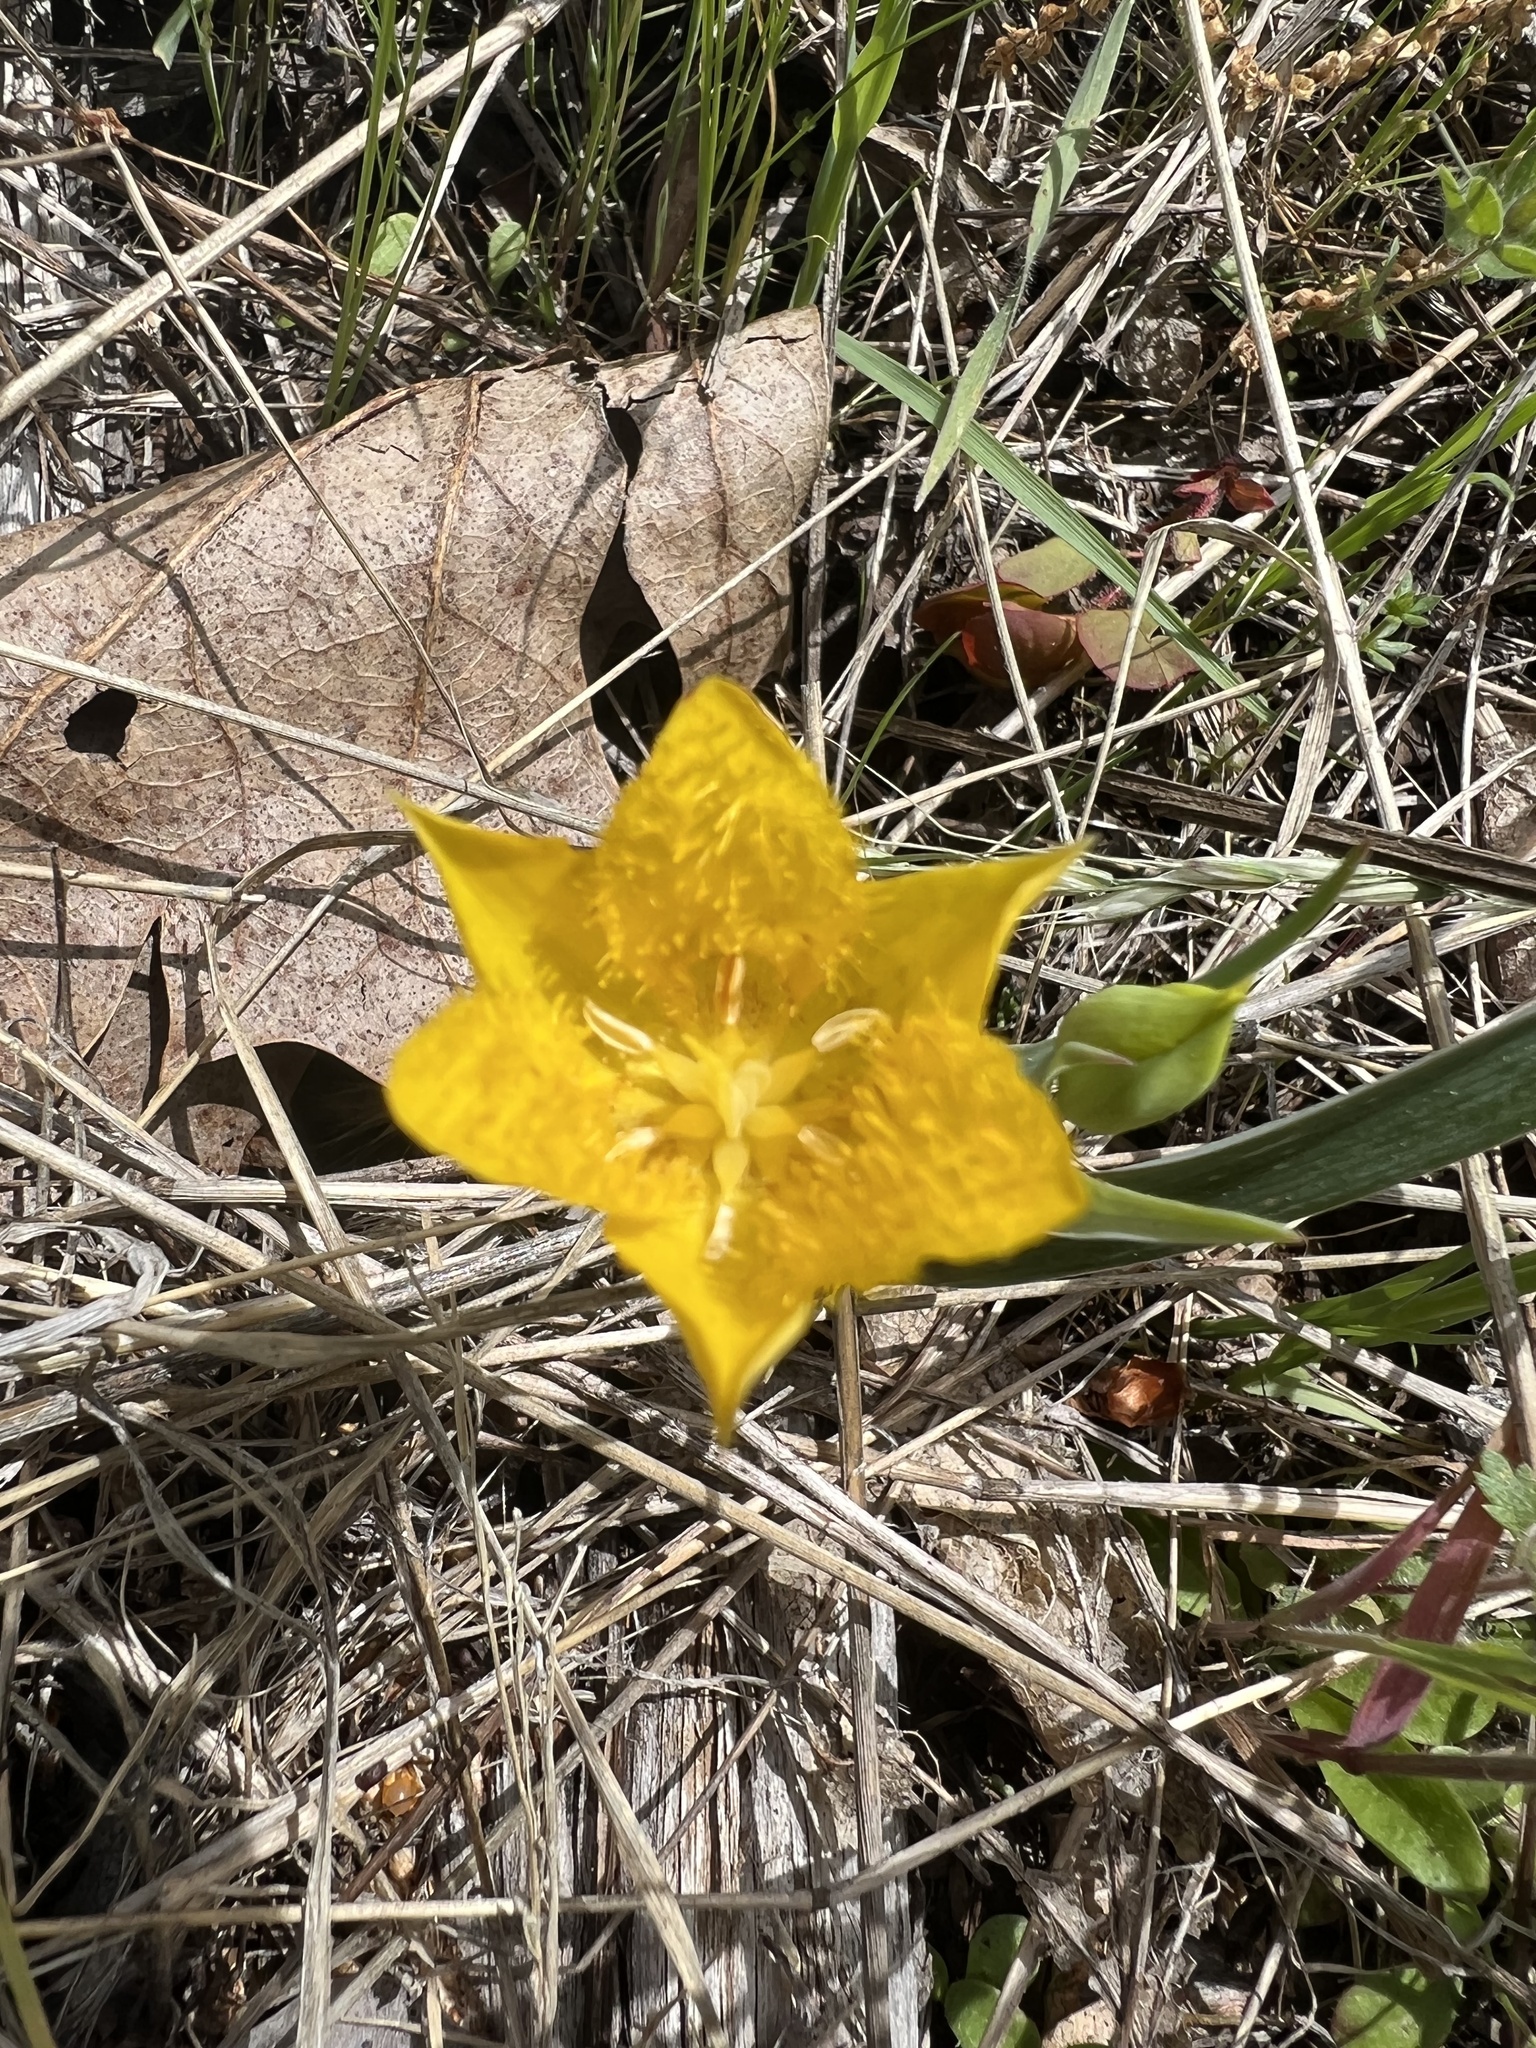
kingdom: Plantae
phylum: Tracheophyta
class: Liliopsida
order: Liliales
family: Liliaceae
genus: Calochortus
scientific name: Calochortus monophyllus
